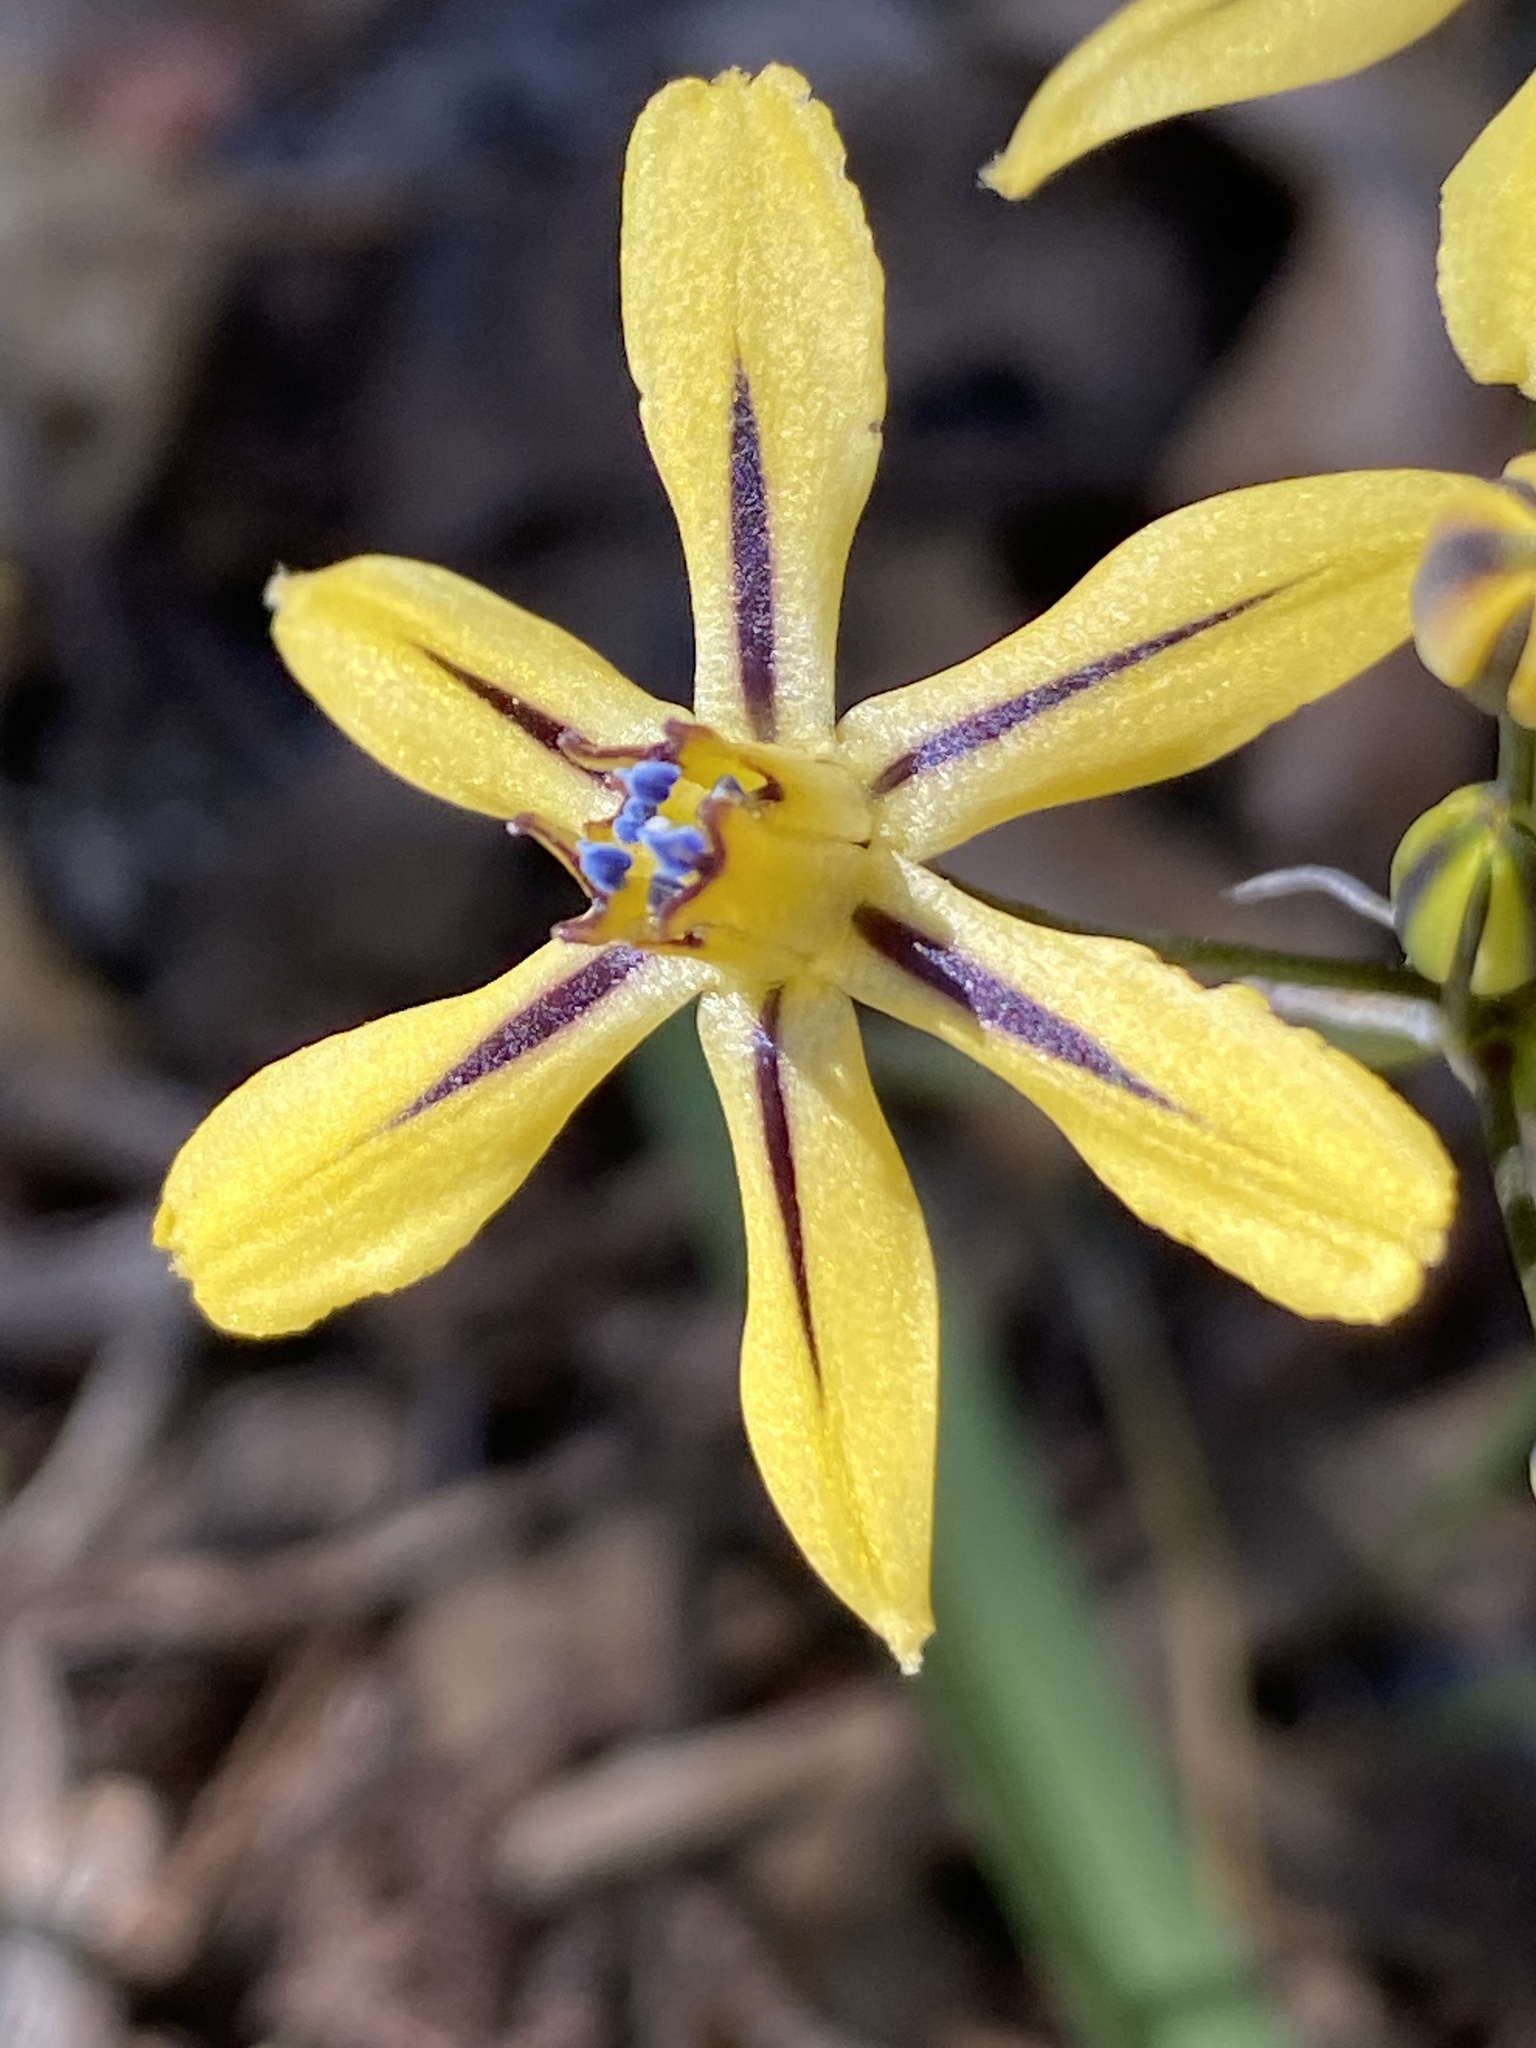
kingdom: Plantae
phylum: Tracheophyta
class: Liliopsida
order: Asparagales
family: Asparagaceae
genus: Triteleia
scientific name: Triteleia ixioides
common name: Yellow-brodiaea
